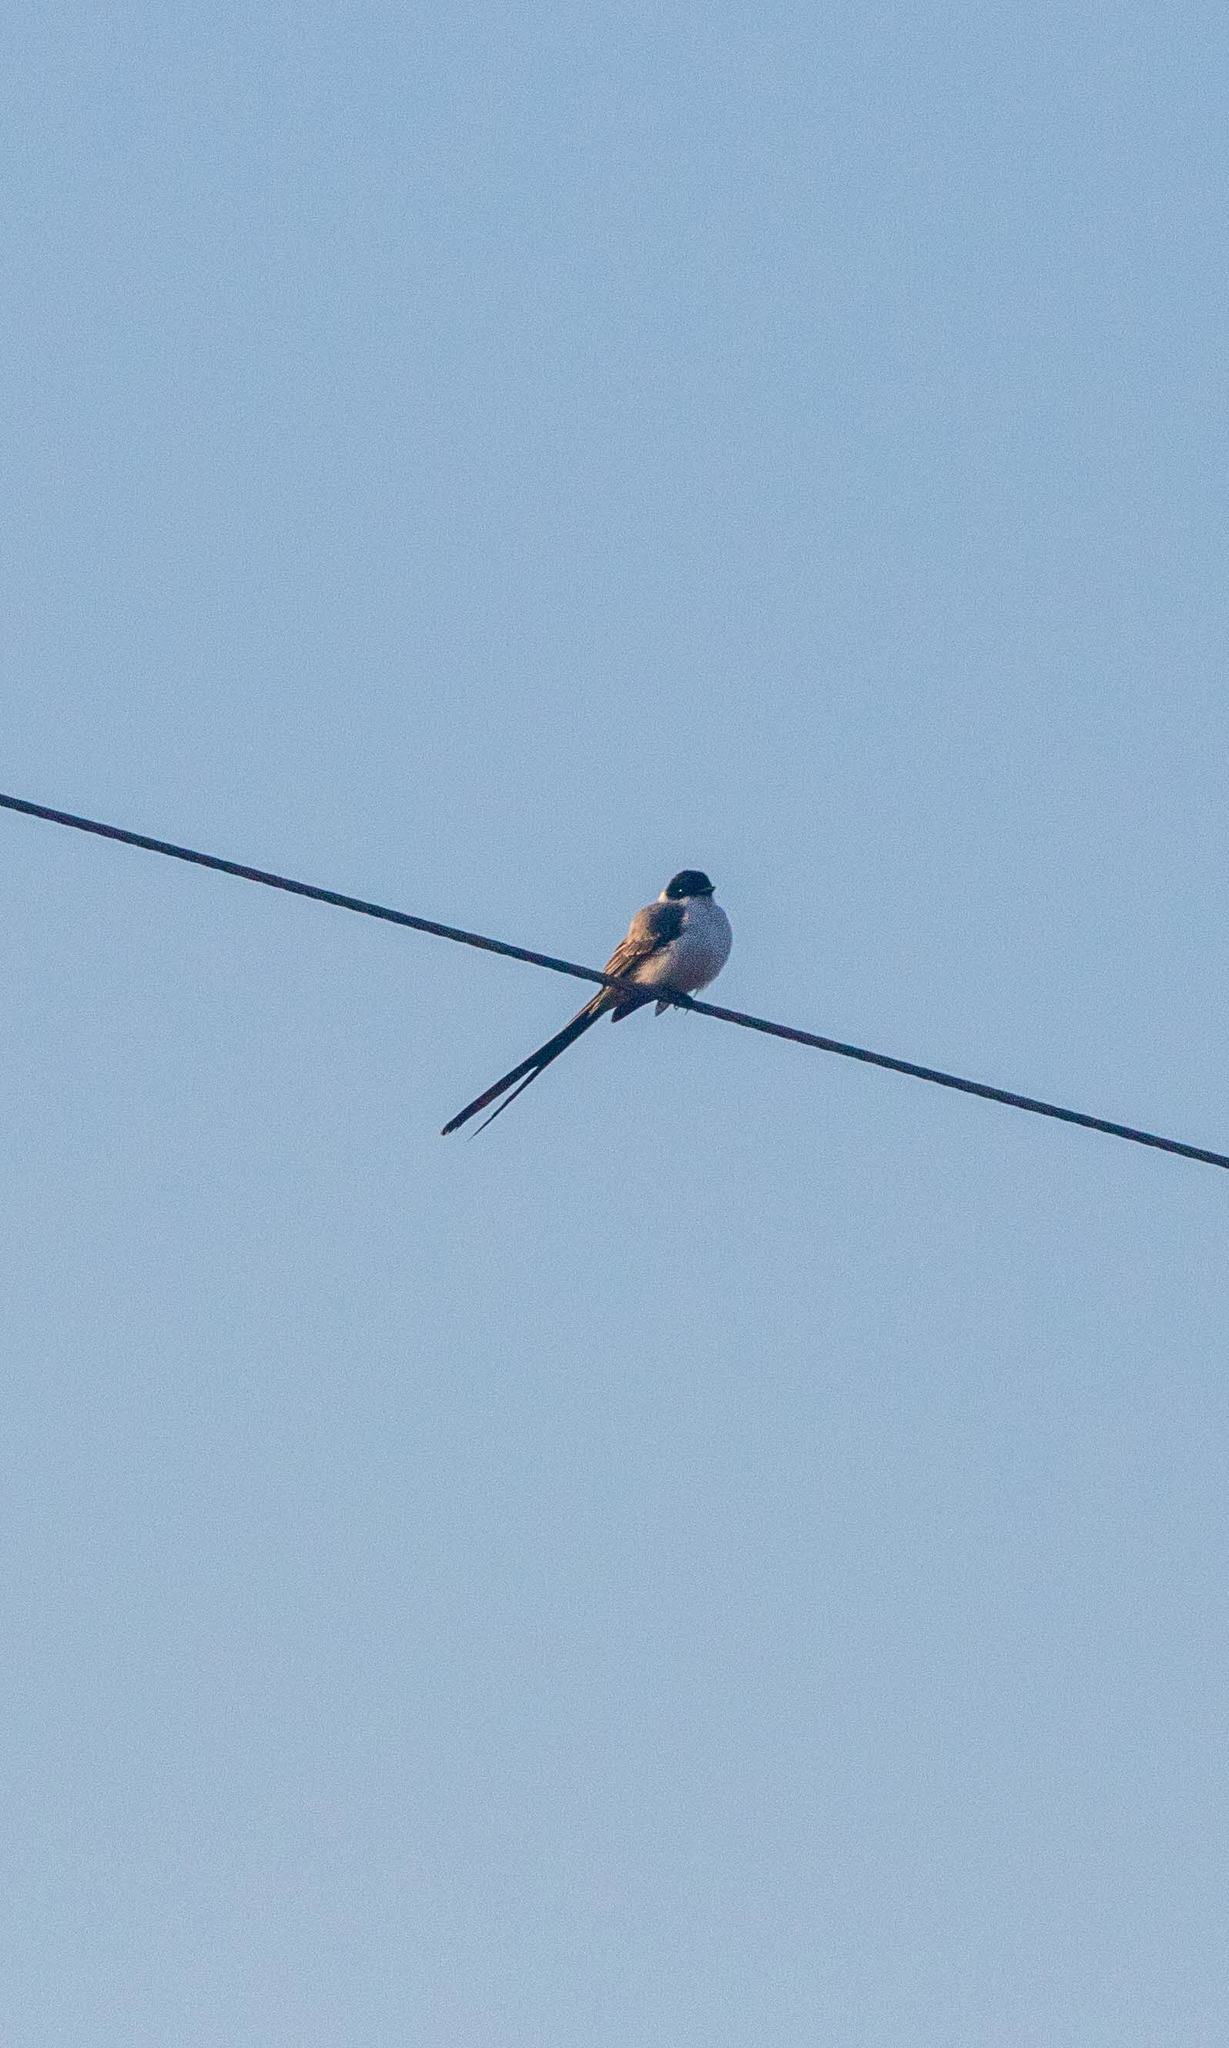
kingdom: Animalia
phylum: Chordata
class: Aves
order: Passeriformes
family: Tyrannidae
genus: Tyrannus
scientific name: Tyrannus savana
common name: Fork-tailed flycatcher
